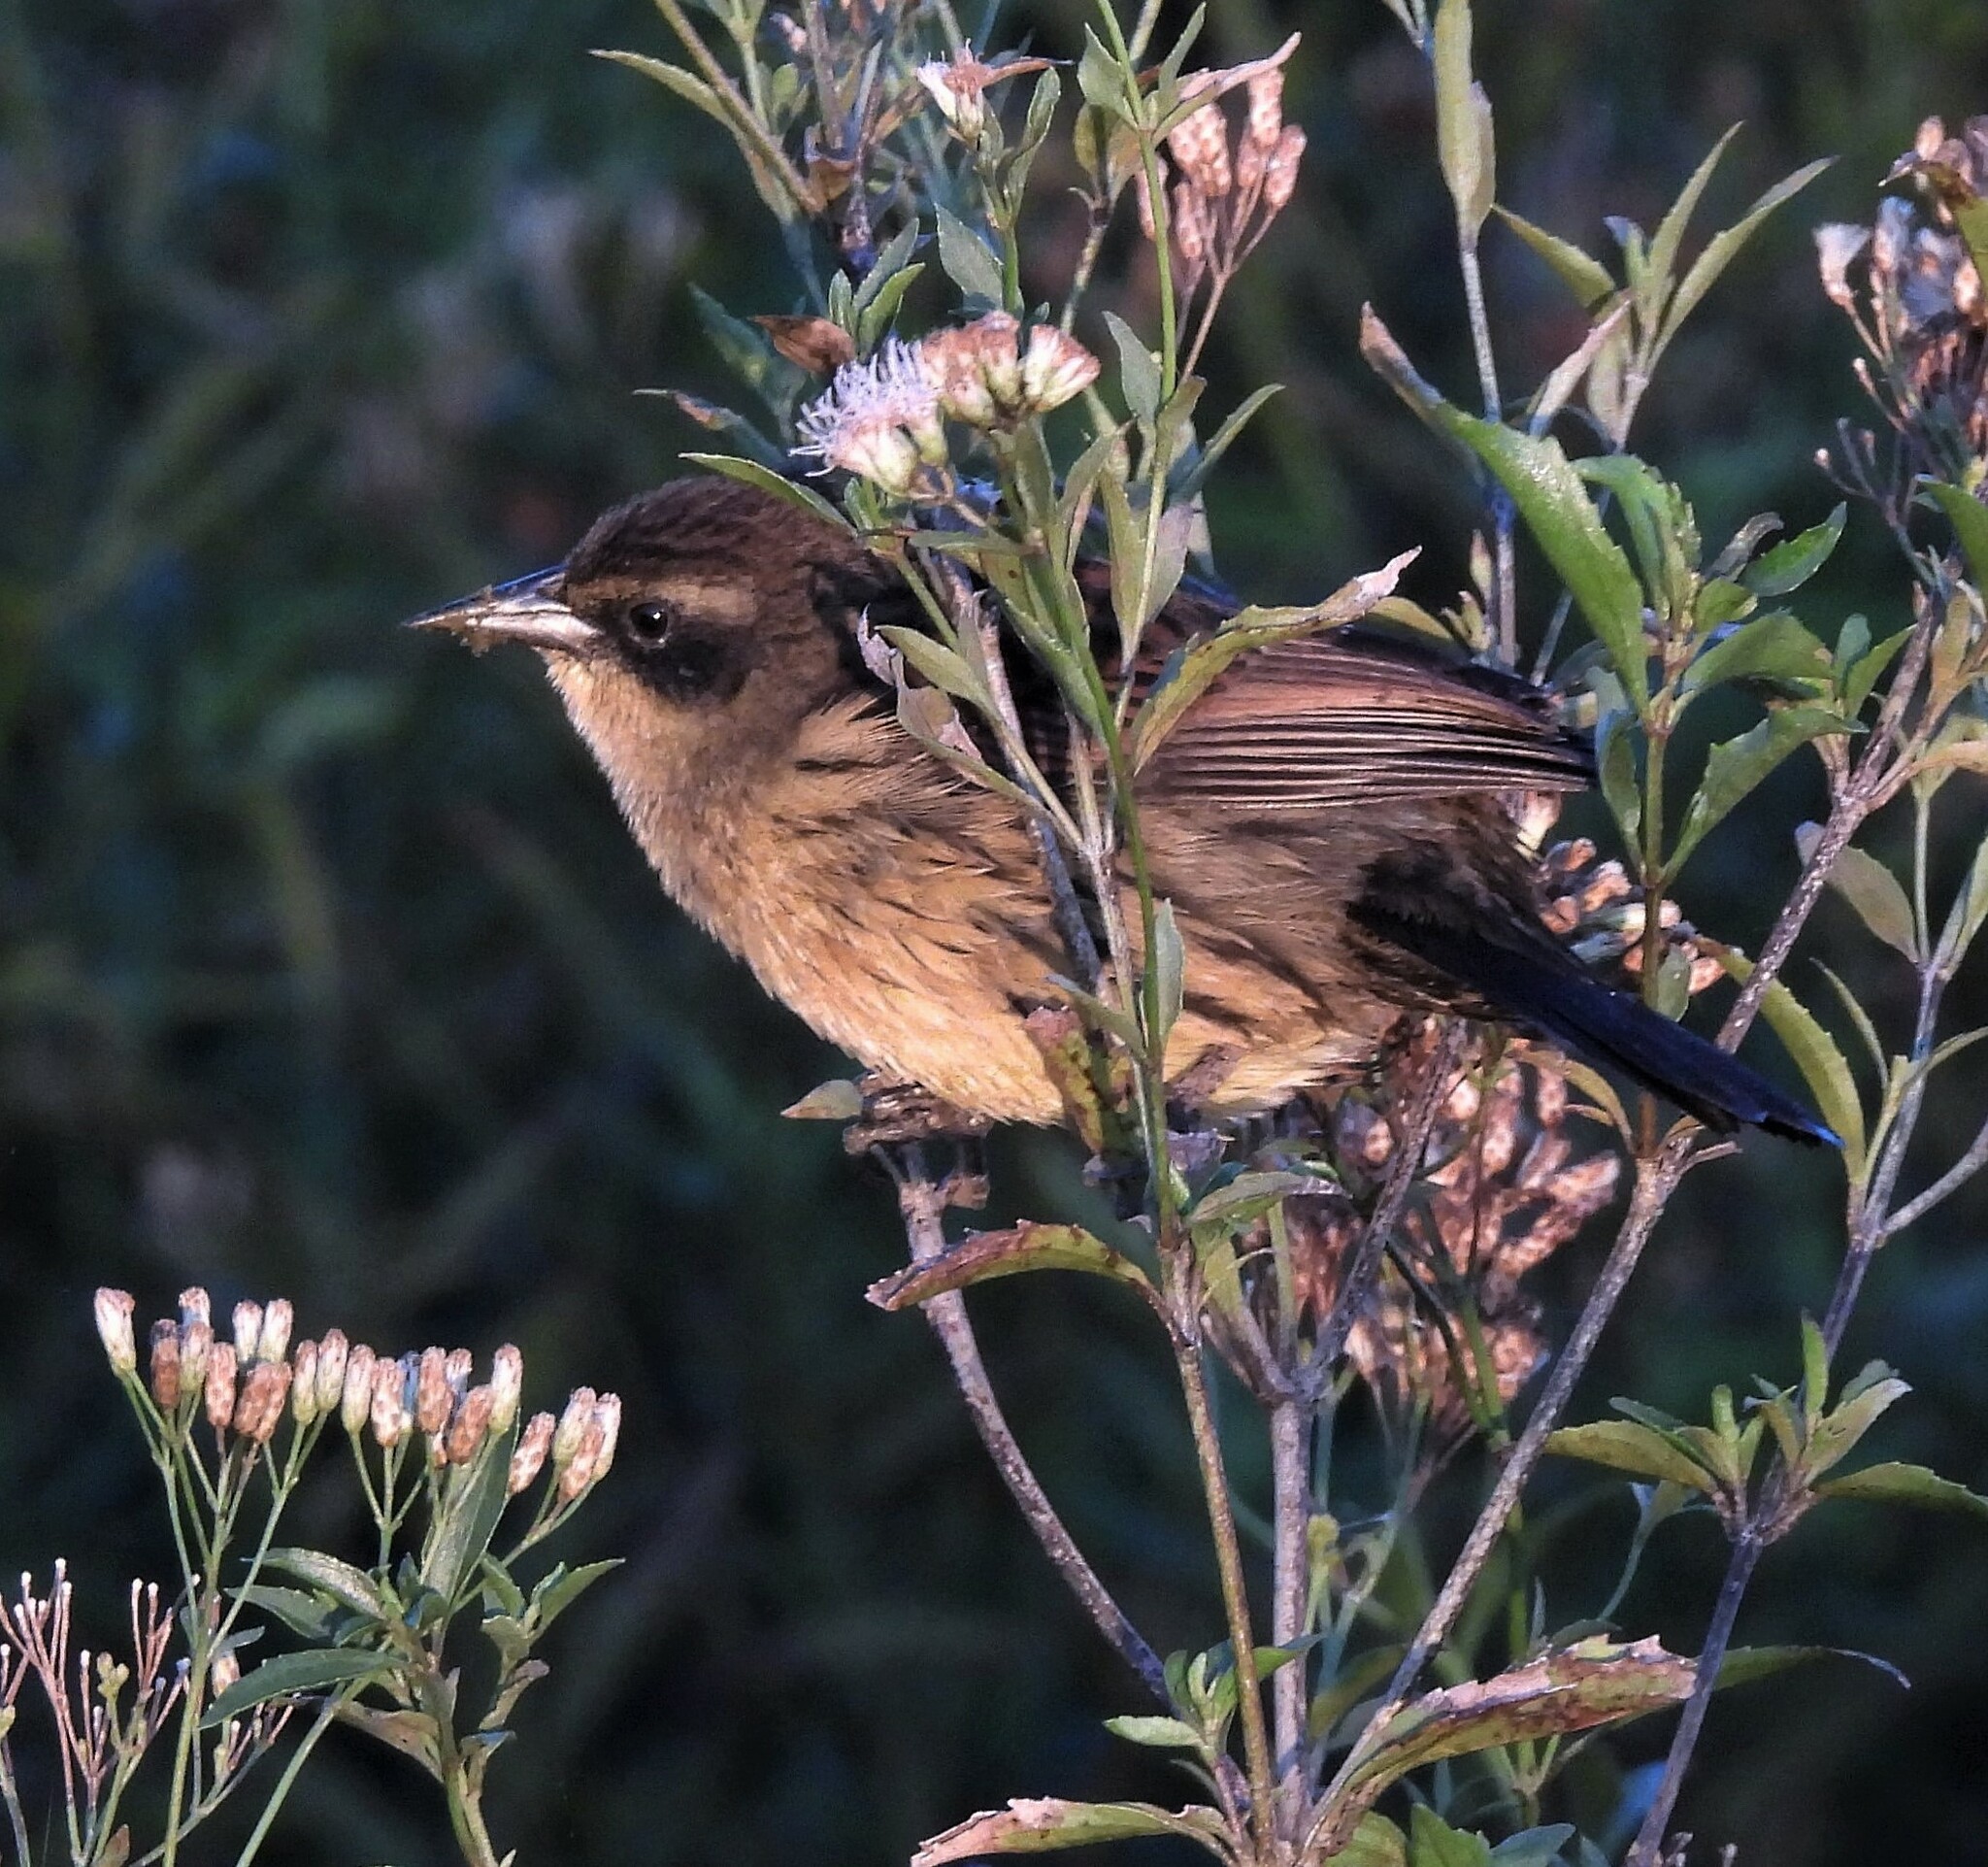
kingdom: Animalia
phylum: Chordata
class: Aves
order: Passeriformes
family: Icteridae
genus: Agelasticus
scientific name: Agelasticus cyanopus
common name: Unicolored blackbird
